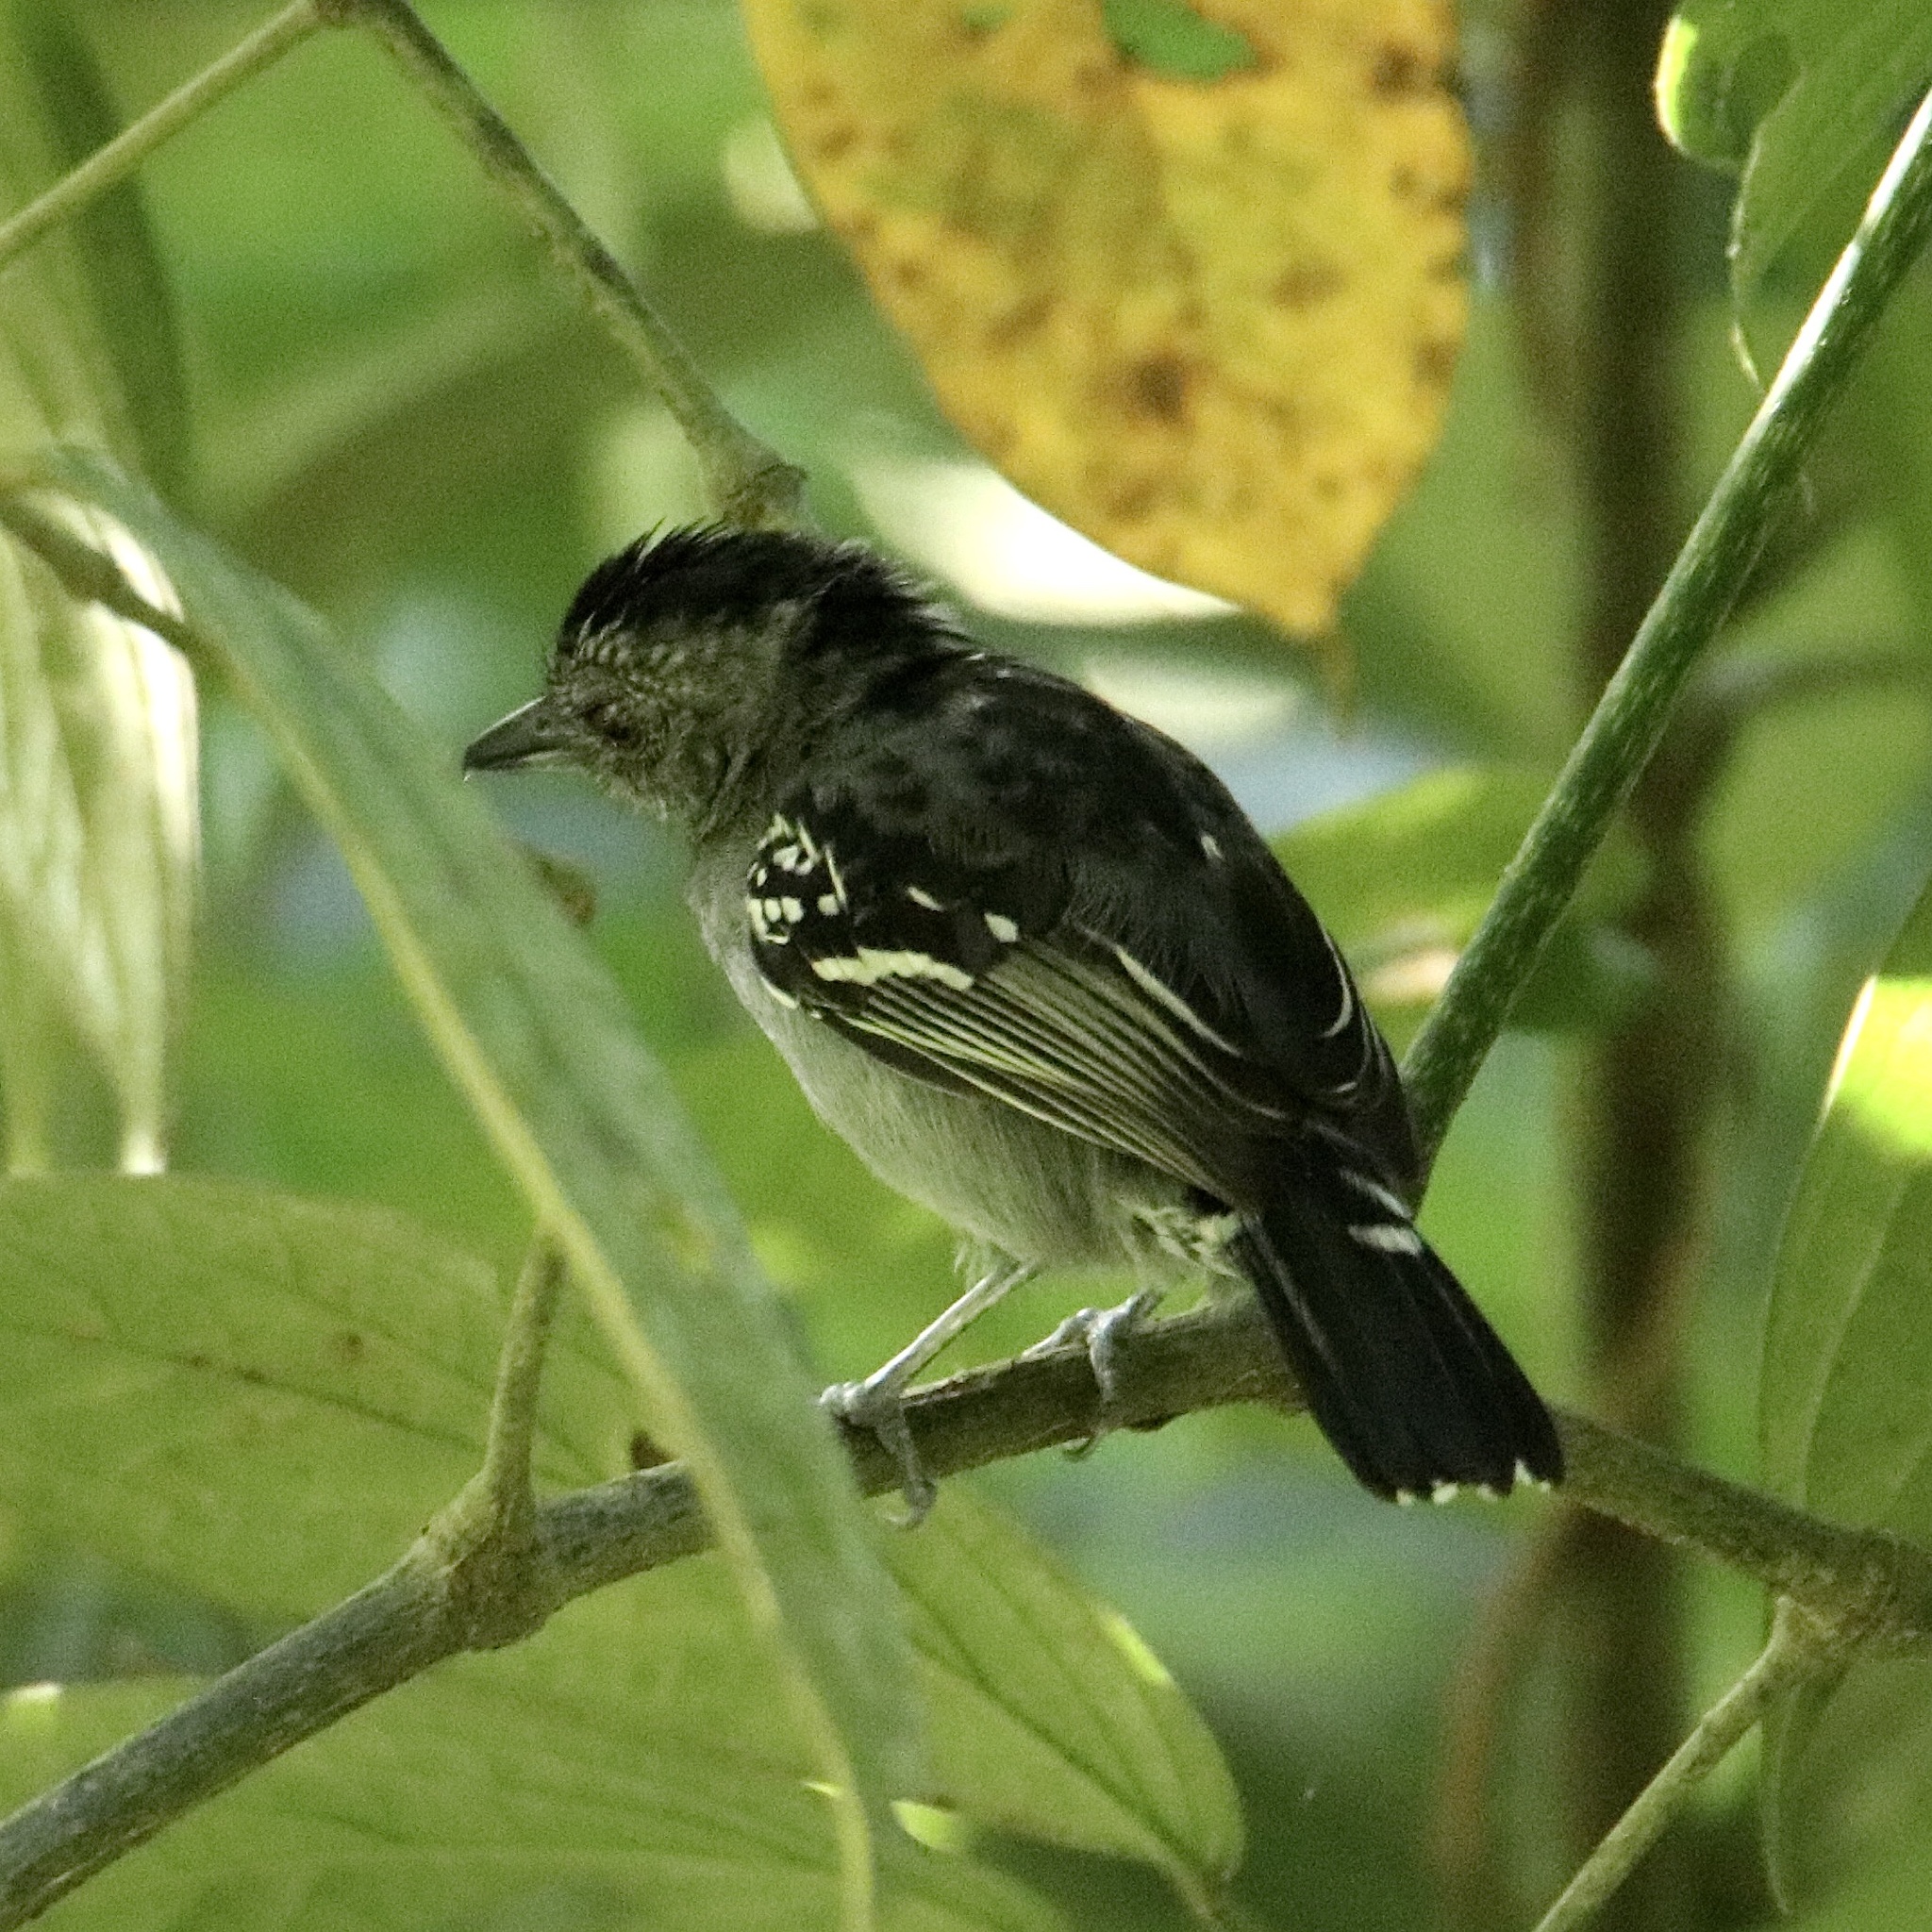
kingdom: Animalia
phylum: Chordata
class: Aves
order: Passeriformes
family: Thamnophilidae
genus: Thamnophilus
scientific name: Thamnophilus atrinucha
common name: Black-crowned antshrike
